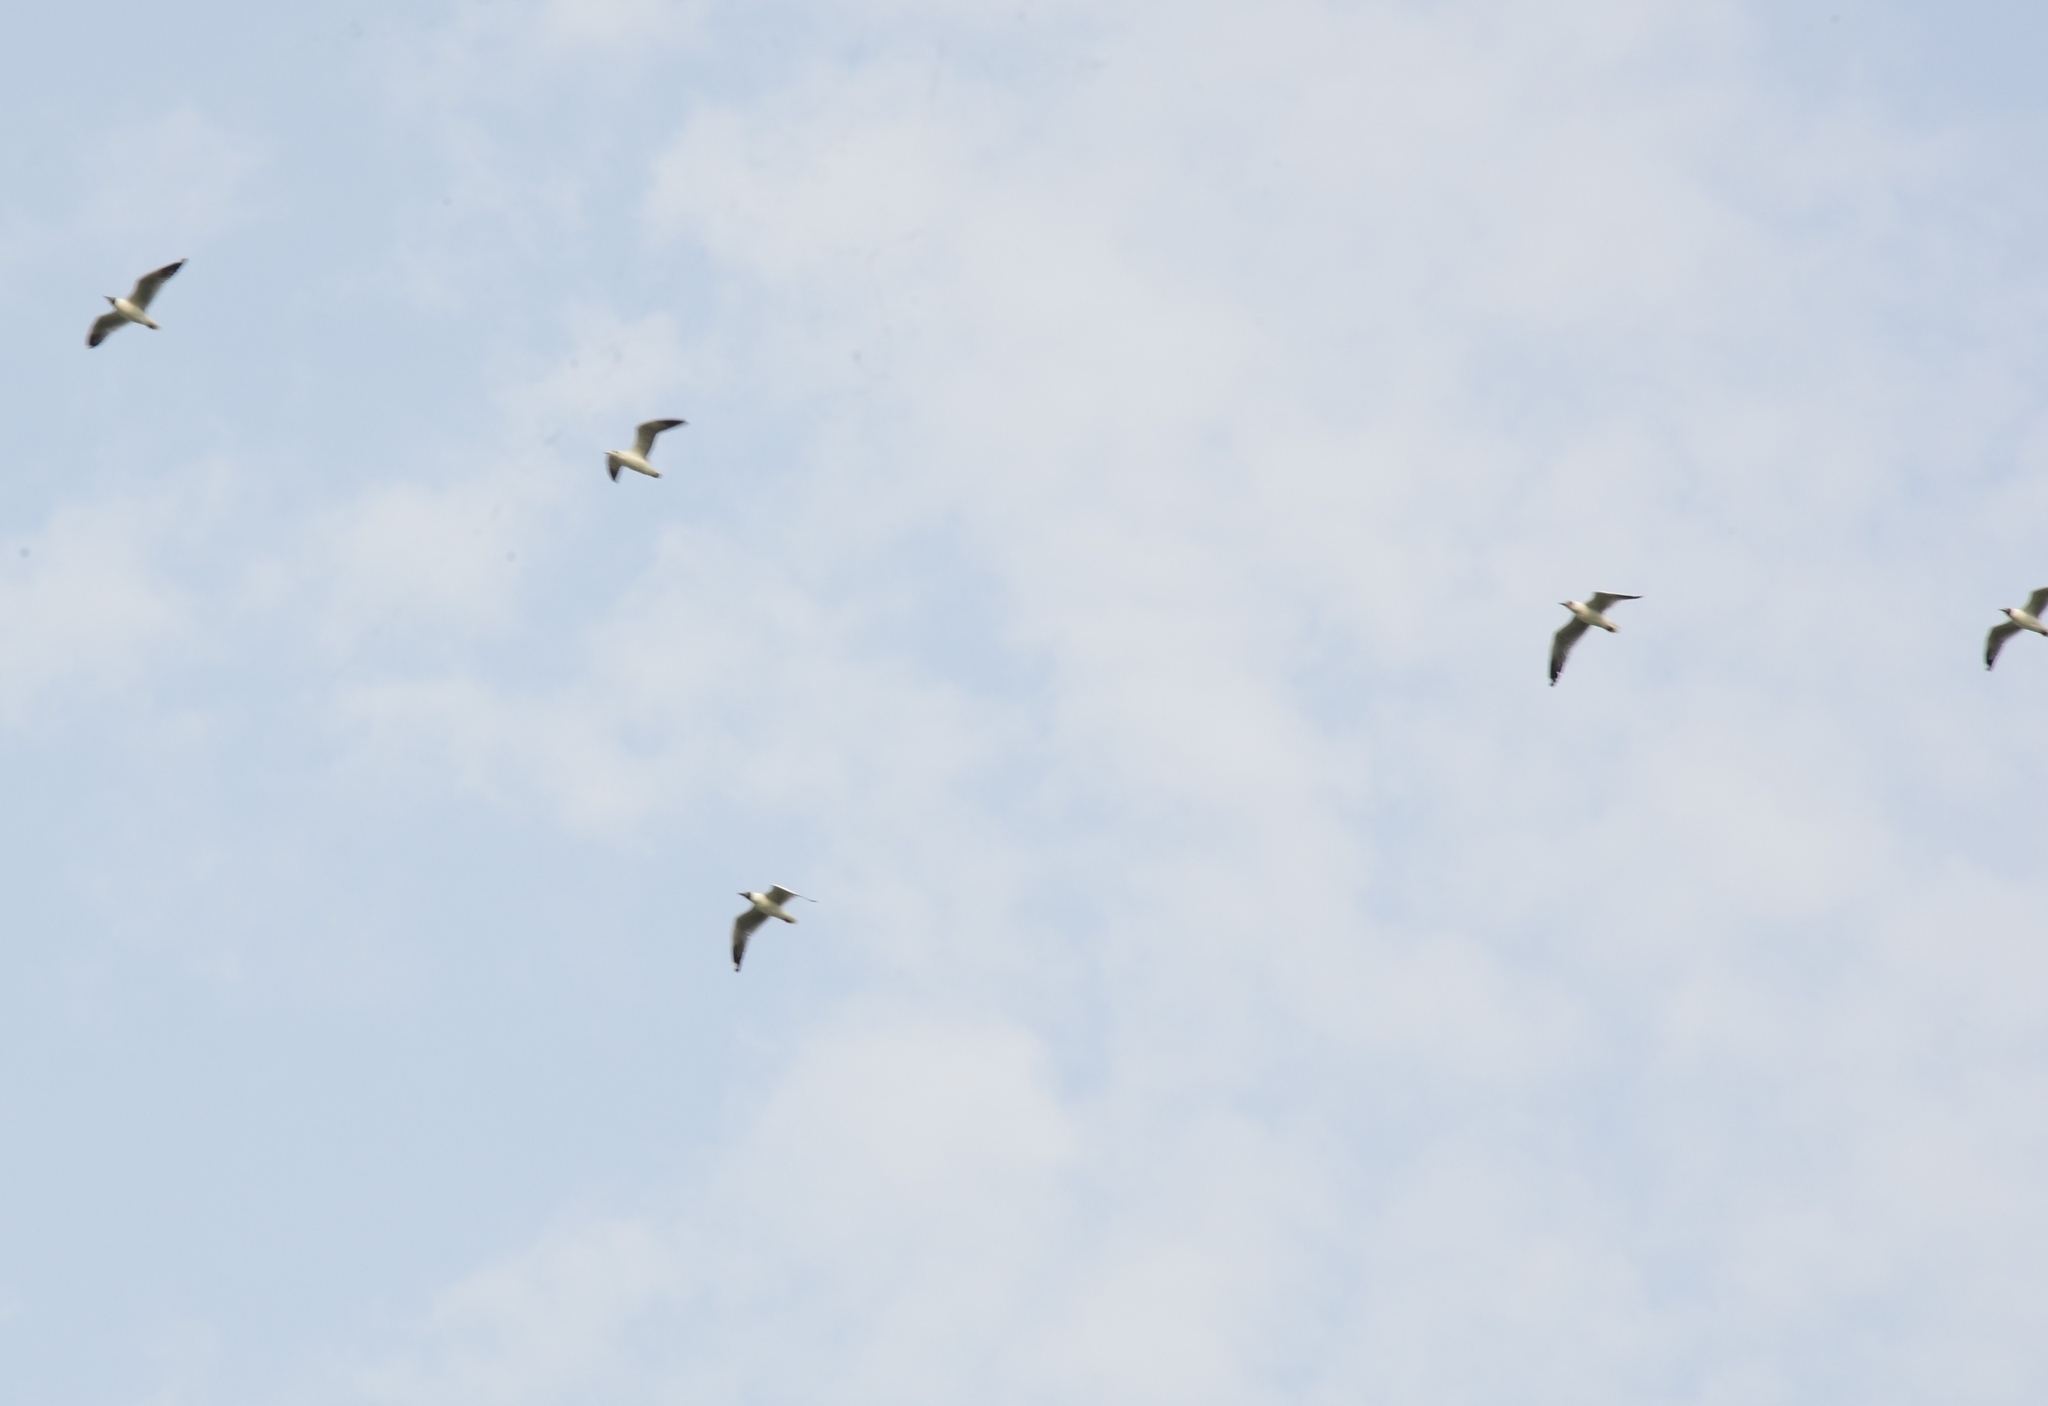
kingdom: Animalia
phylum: Chordata
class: Aves
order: Charadriiformes
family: Laridae
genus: Chroicocephalus
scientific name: Chroicocephalus brunnicephalus
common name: Brown-headed gull
